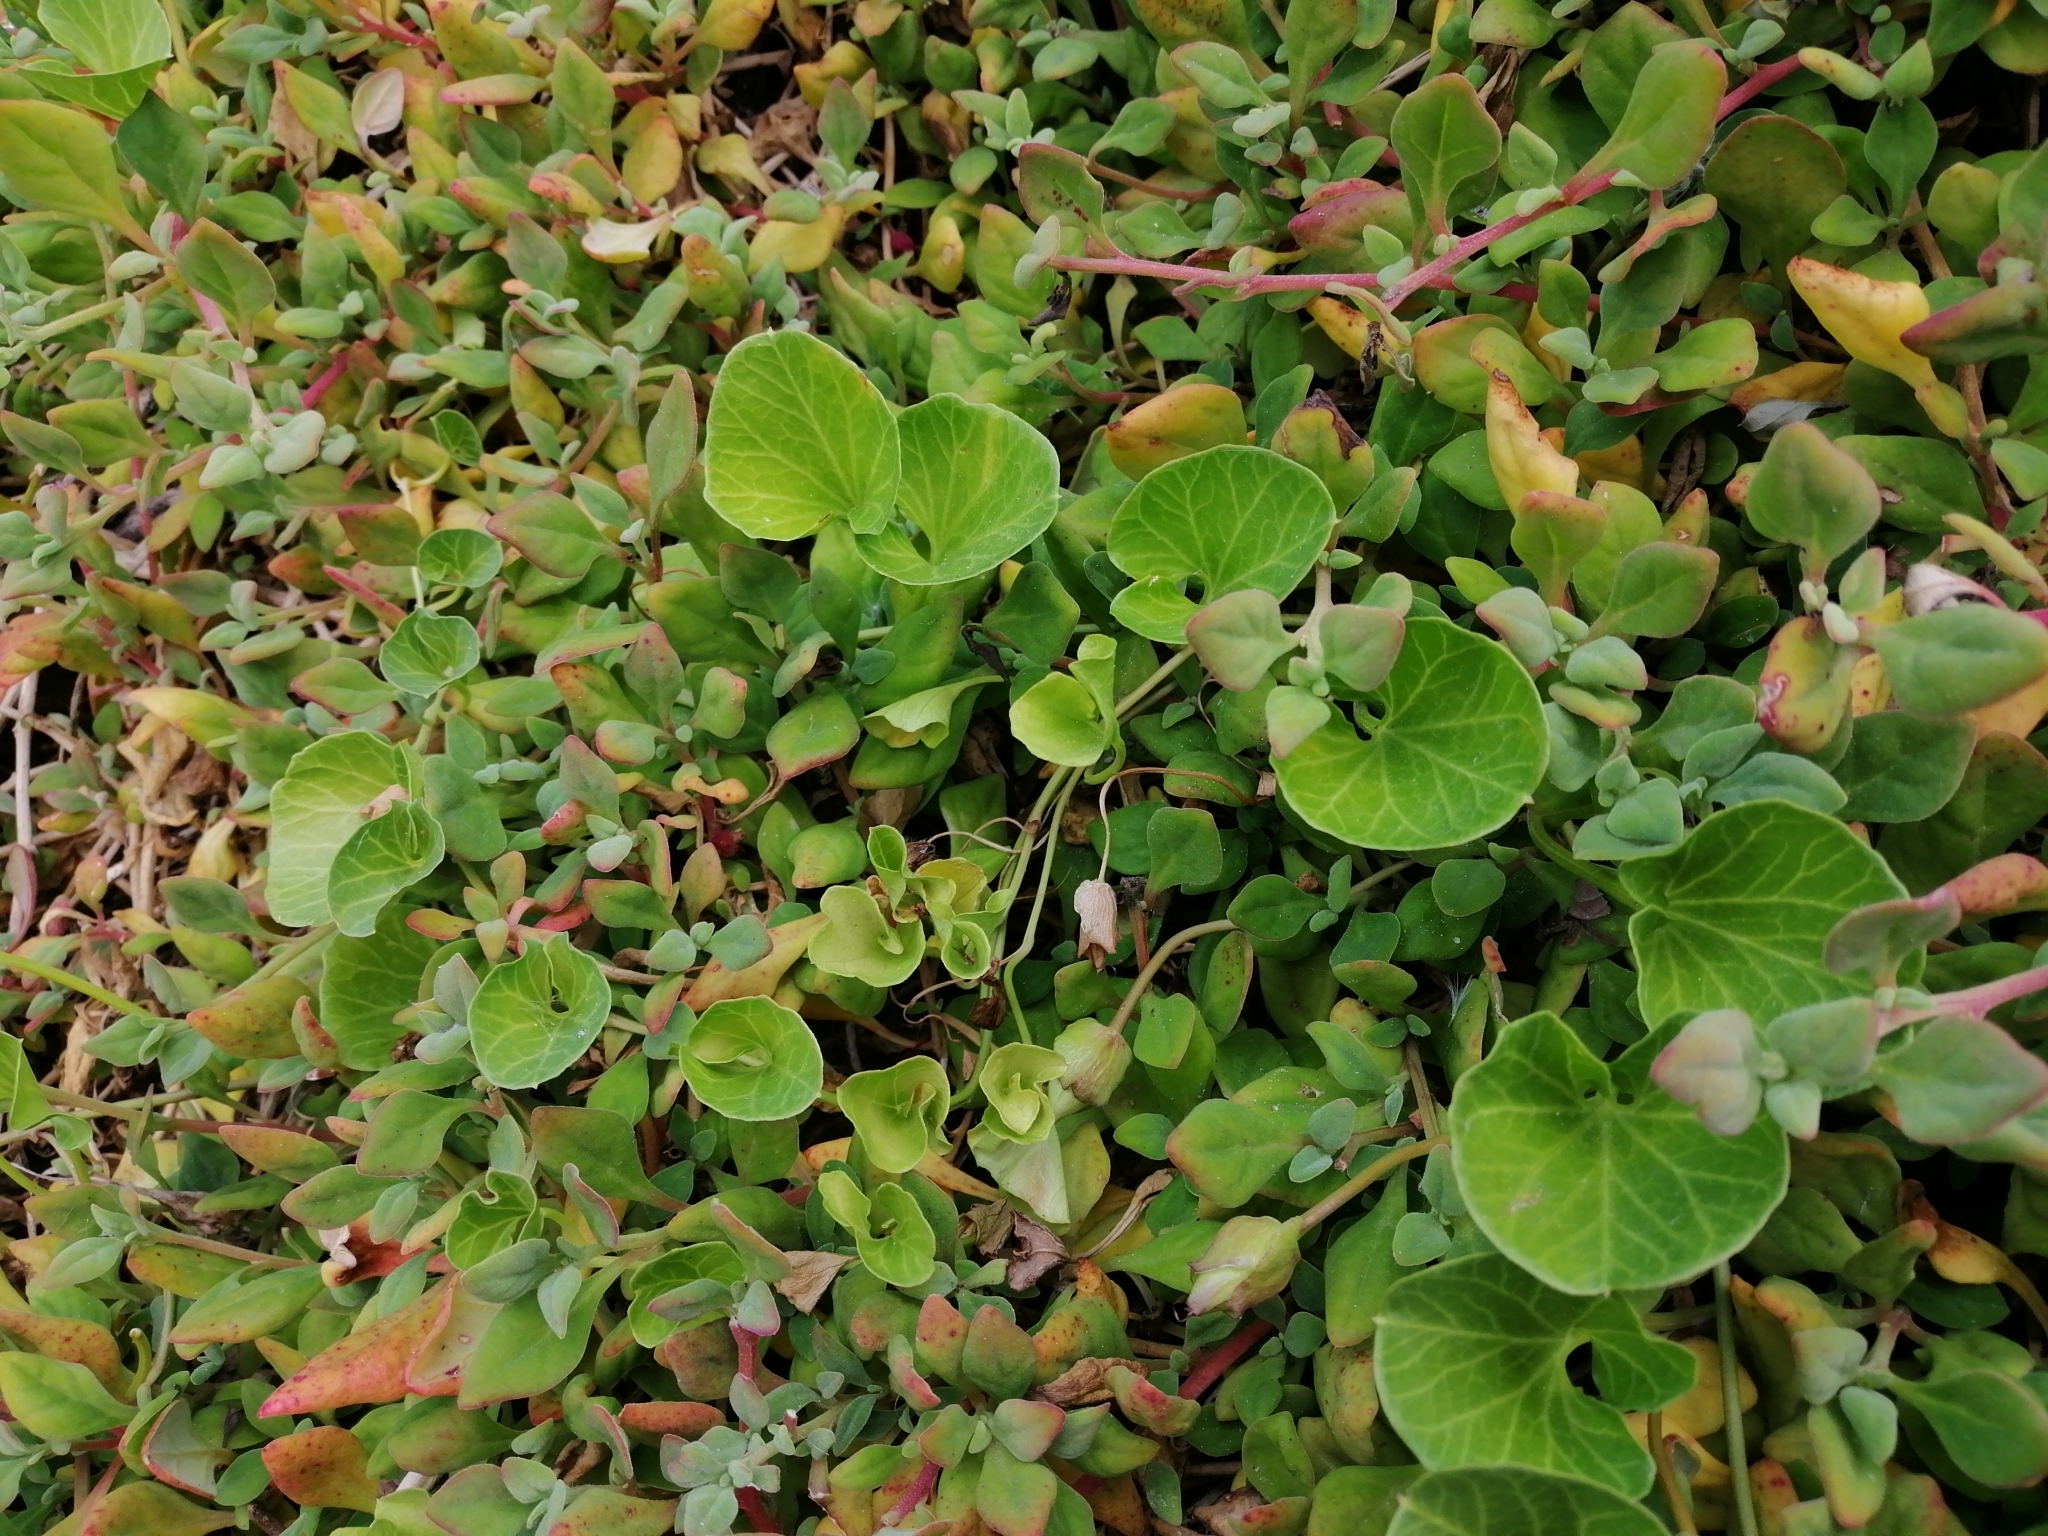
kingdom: Plantae
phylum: Tracheophyta
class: Magnoliopsida
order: Solanales
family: Convolvulaceae
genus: Calystegia
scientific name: Calystegia soldanella
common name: Sea bindweed
